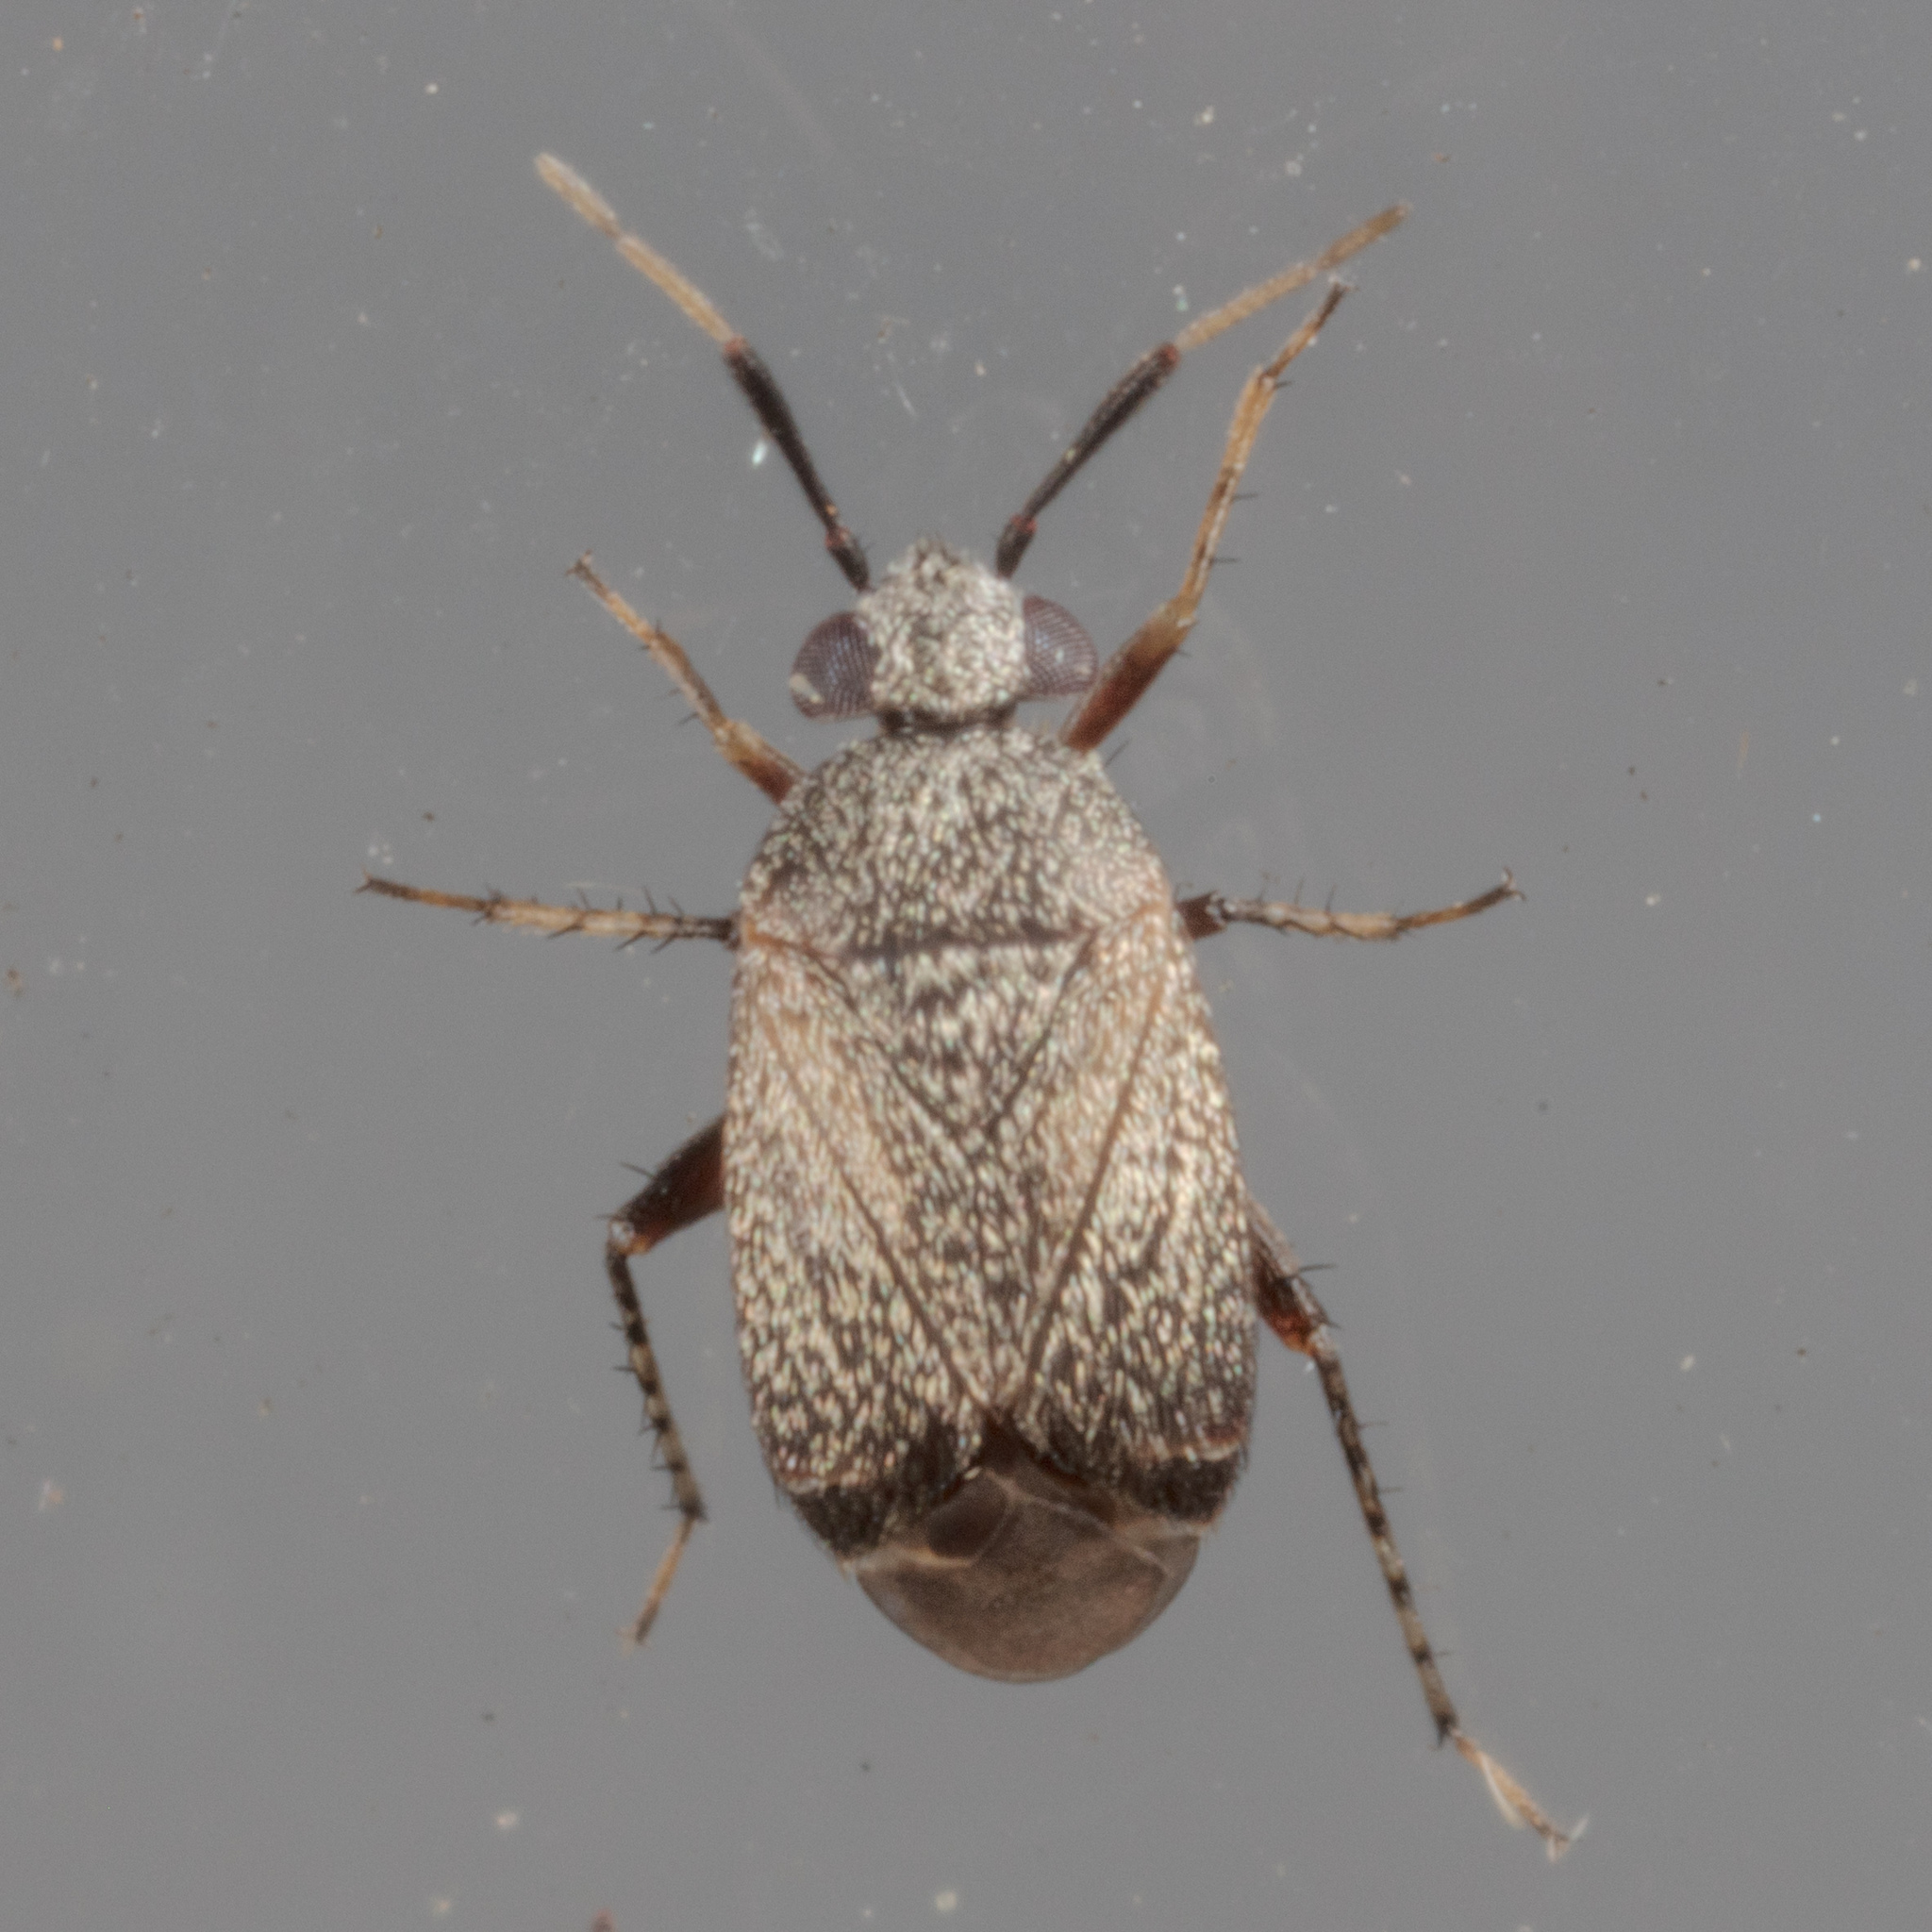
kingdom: Animalia
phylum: Arthropoda
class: Insecta
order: Hemiptera
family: Miridae
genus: Rhinacloa
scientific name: Rhinacloa forticornis
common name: Brown cotton mirid
